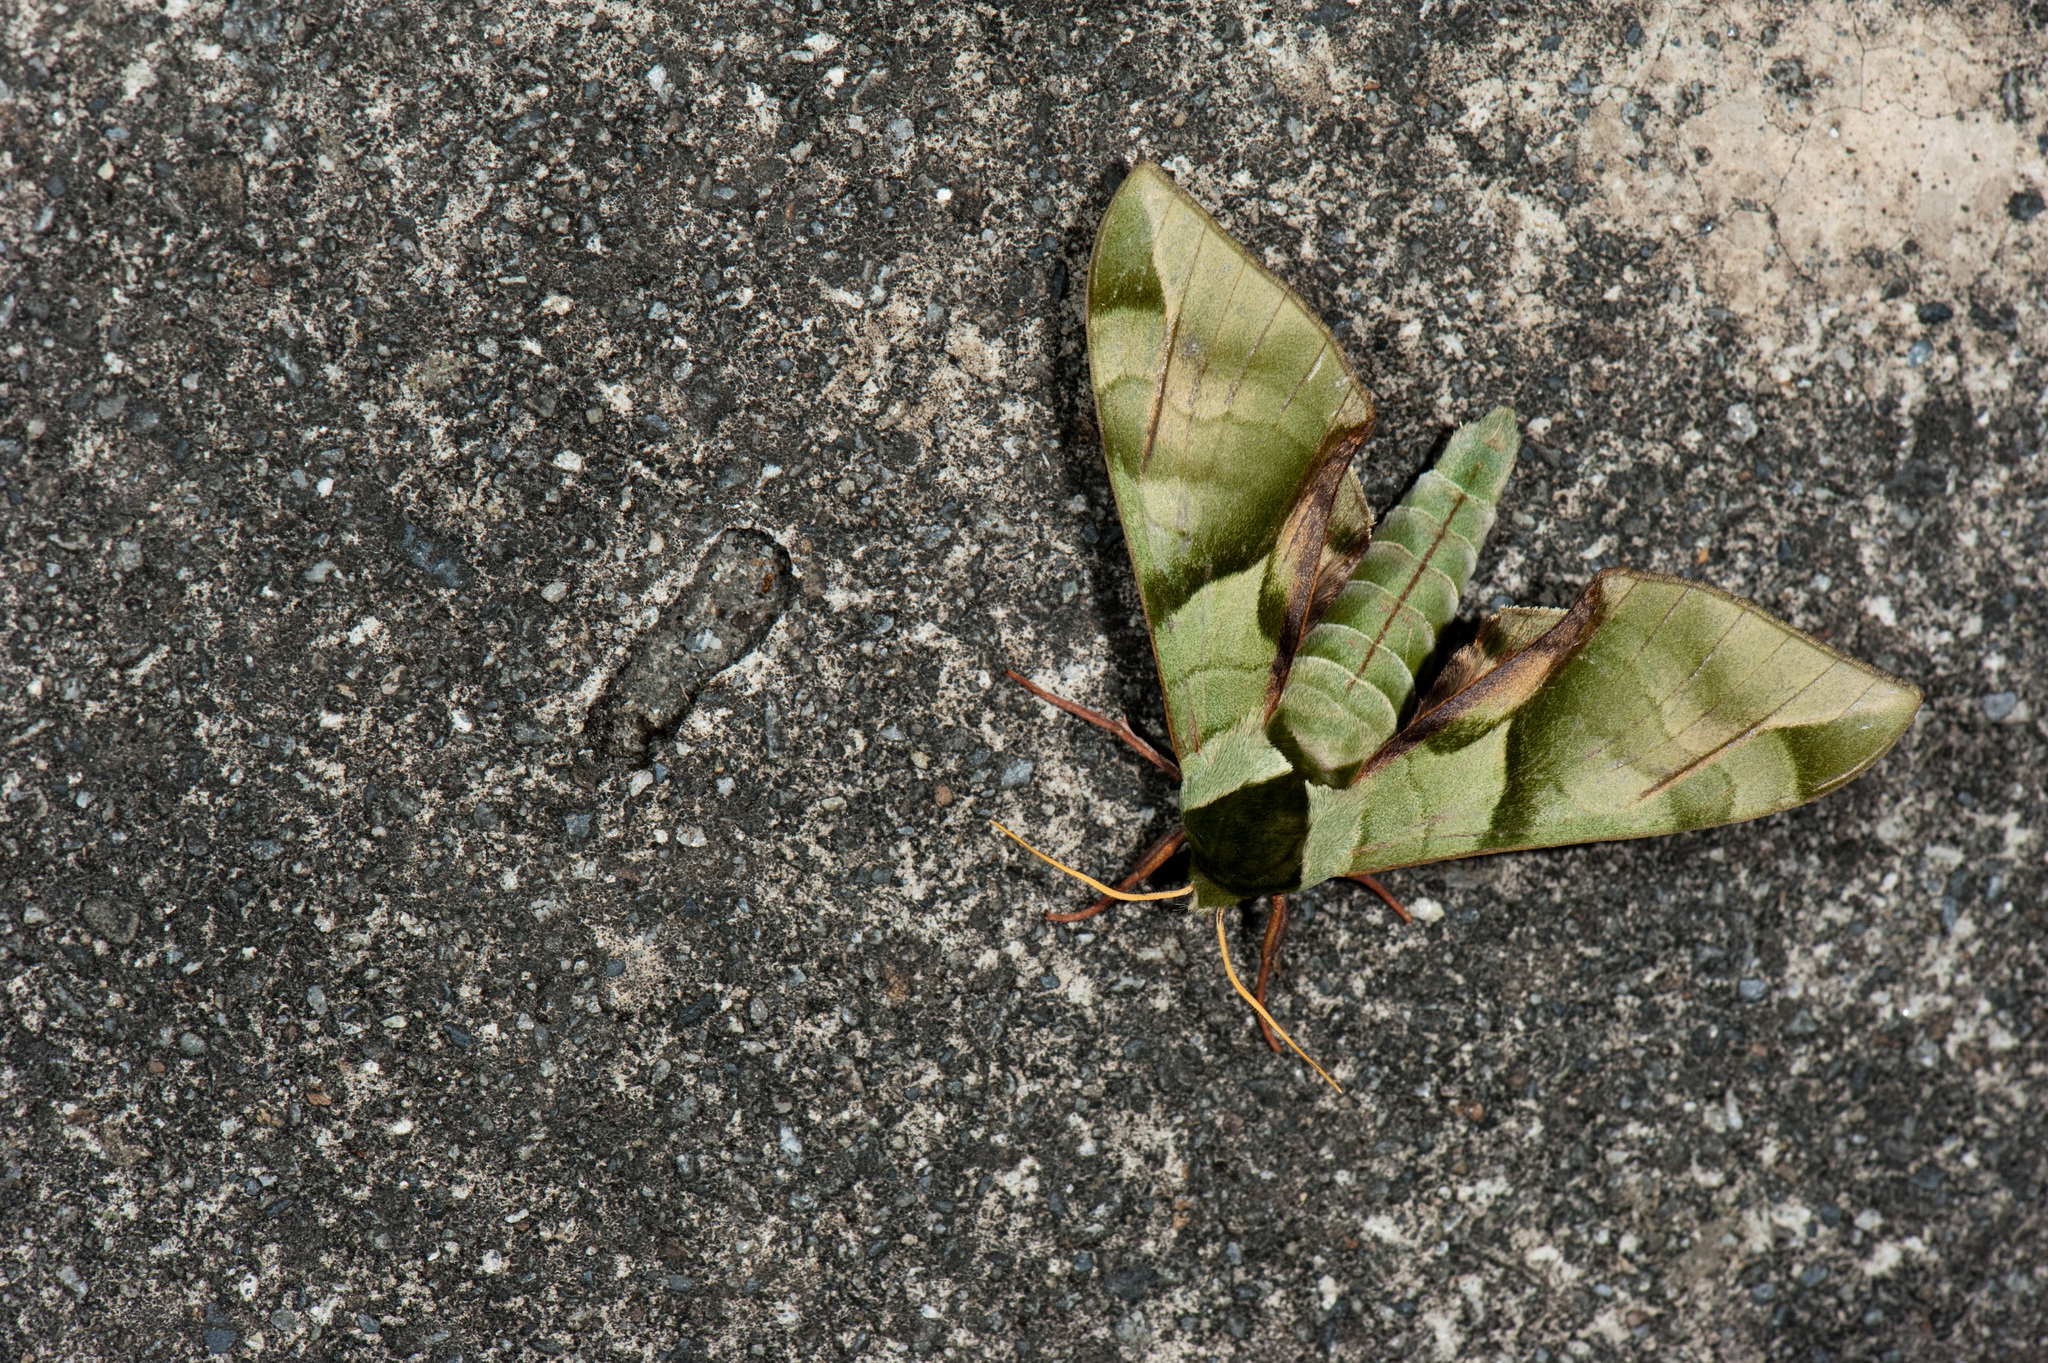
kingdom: Animalia
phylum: Arthropoda
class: Insecta
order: Lepidoptera
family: Sphingidae
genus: Callambulyx
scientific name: Callambulyx tatarinovii
